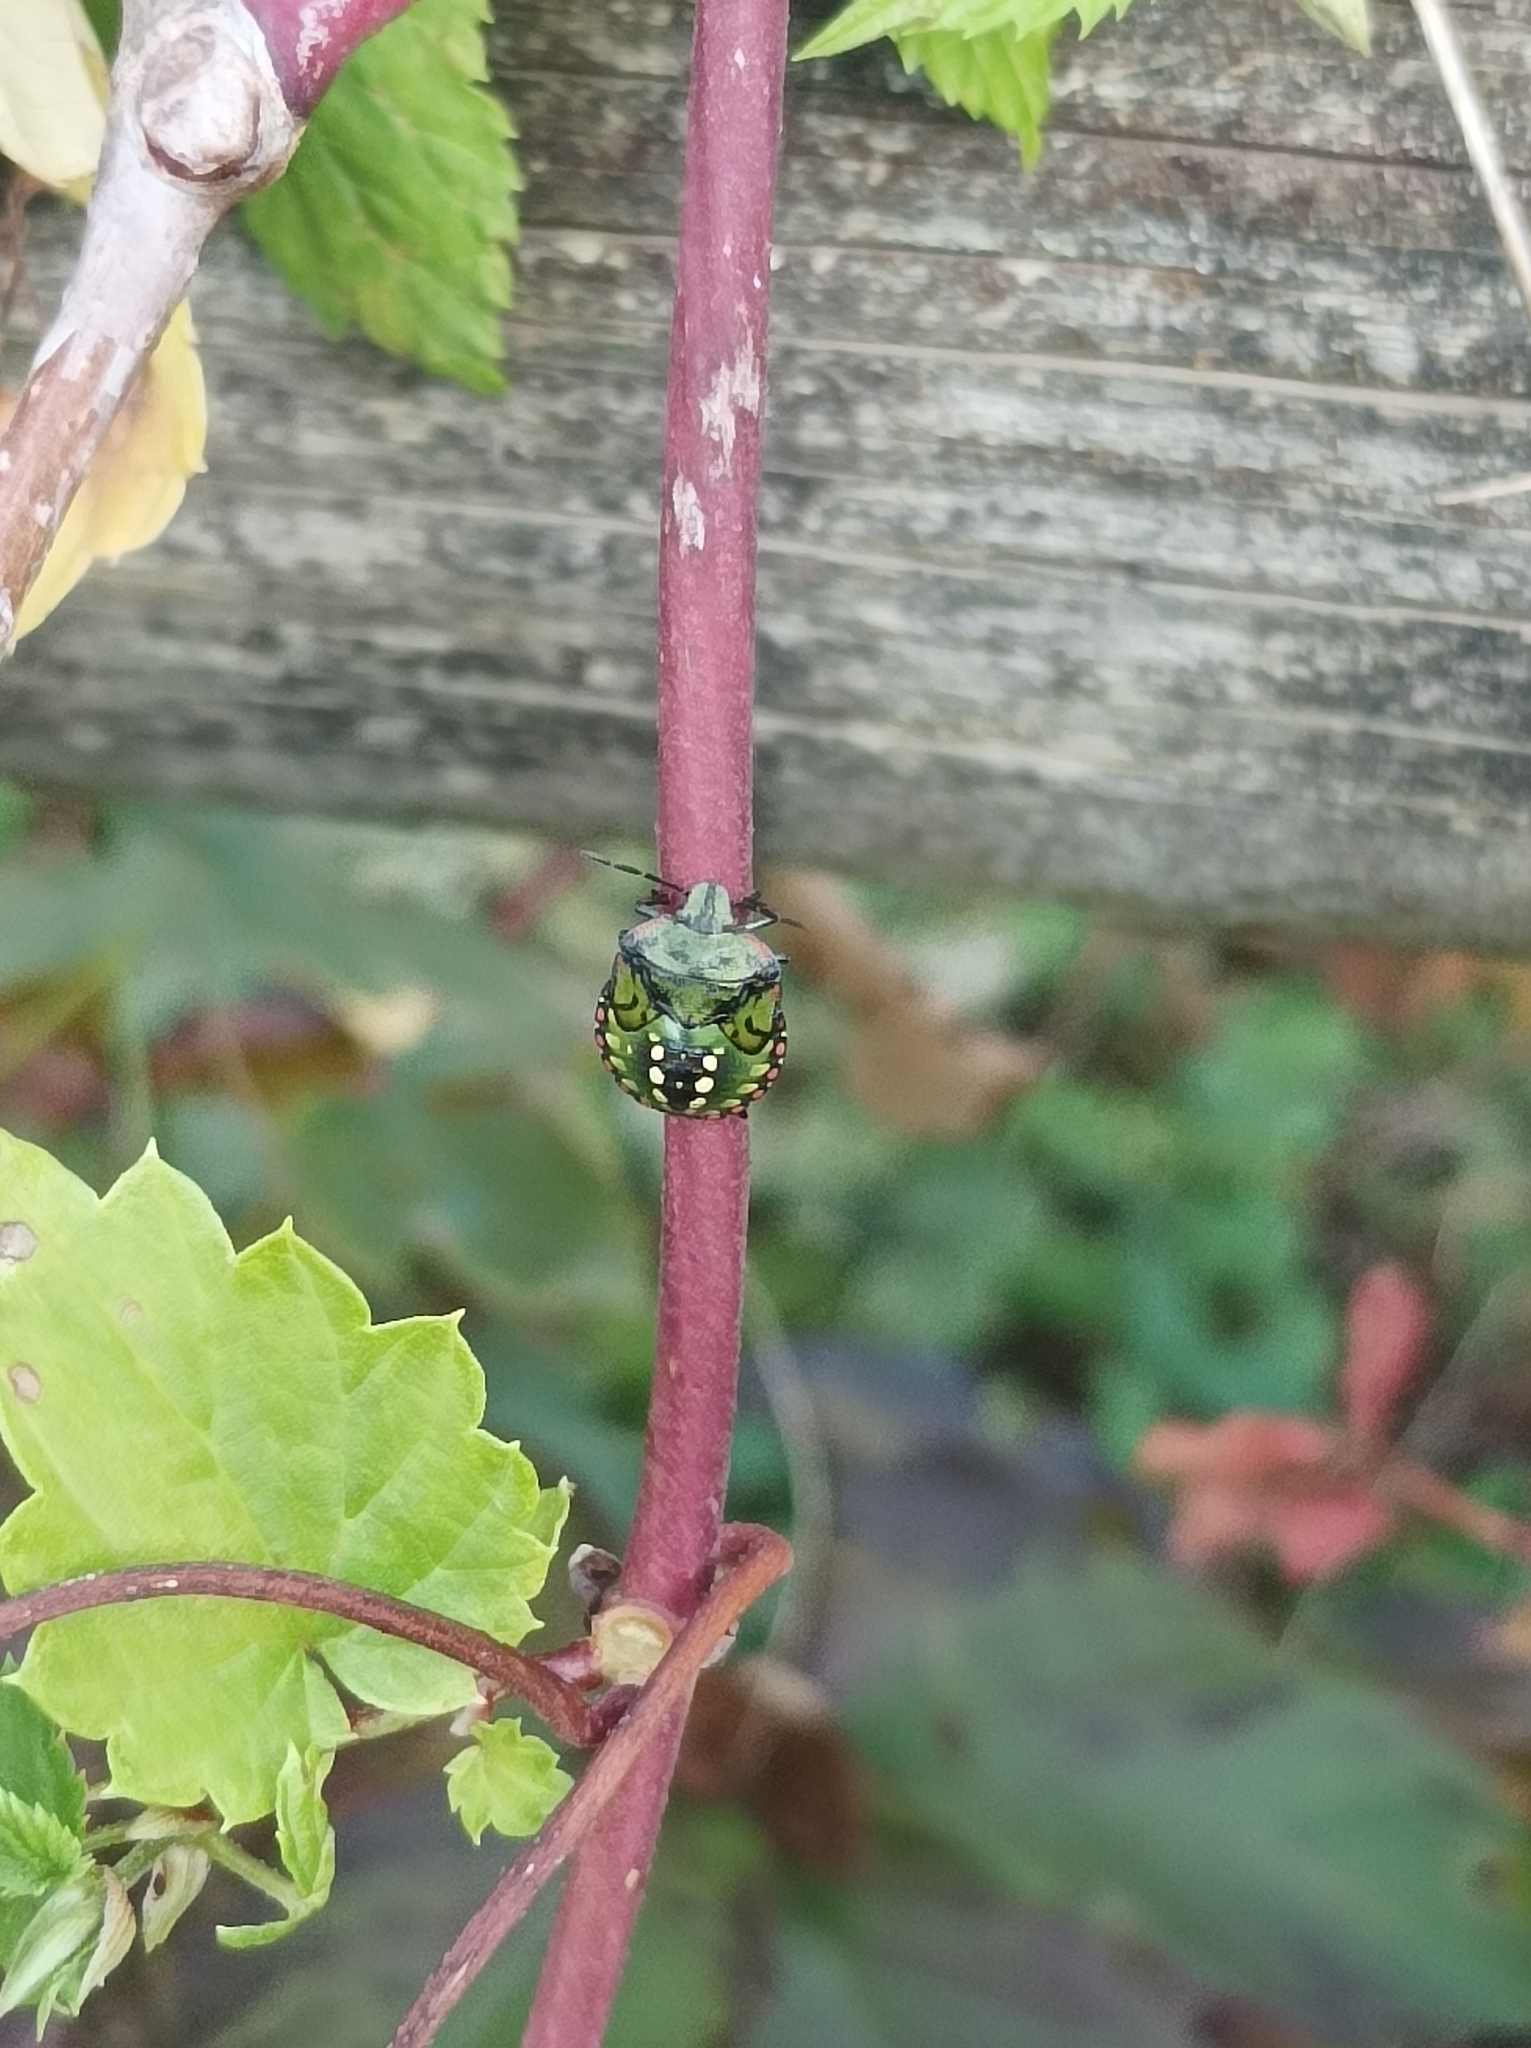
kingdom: Animalia
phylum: Arthropoda
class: Insecta
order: Hemiptera
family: Pentatomidae
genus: Nezara
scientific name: Nezara viridula
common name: Southern green stink bug
